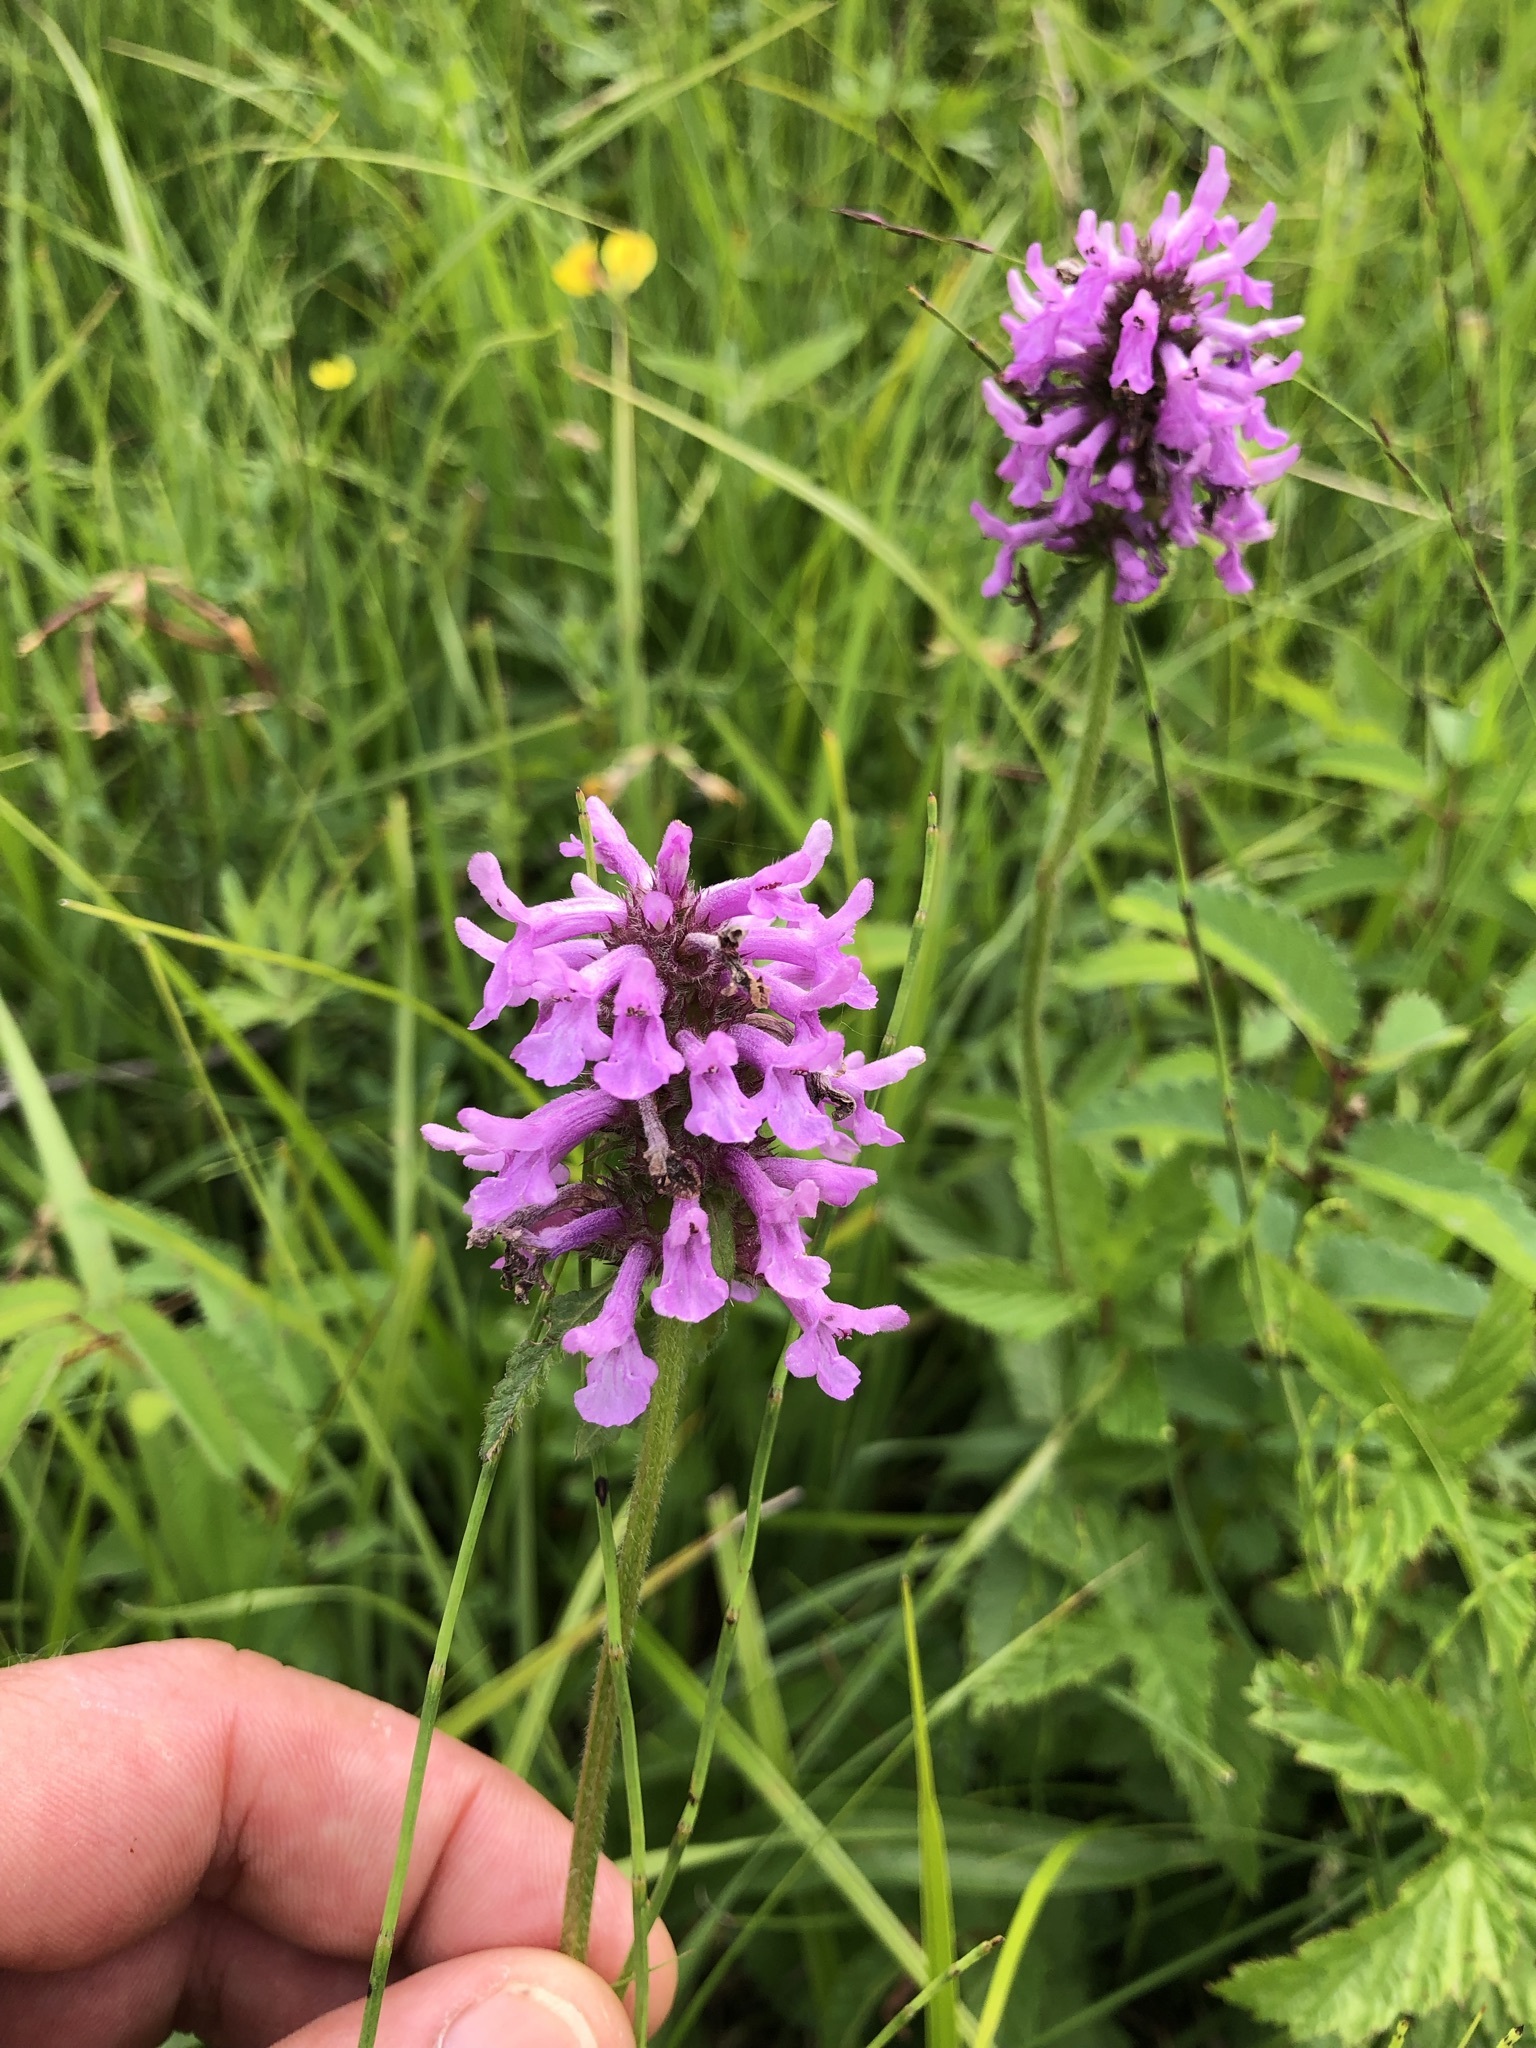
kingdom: Plantae
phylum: Tracheophyta
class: Magnoliopsida
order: Lamiales
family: Lamiaceae
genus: Betonica
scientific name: Betonica officinalis
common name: Bishop's-wort
